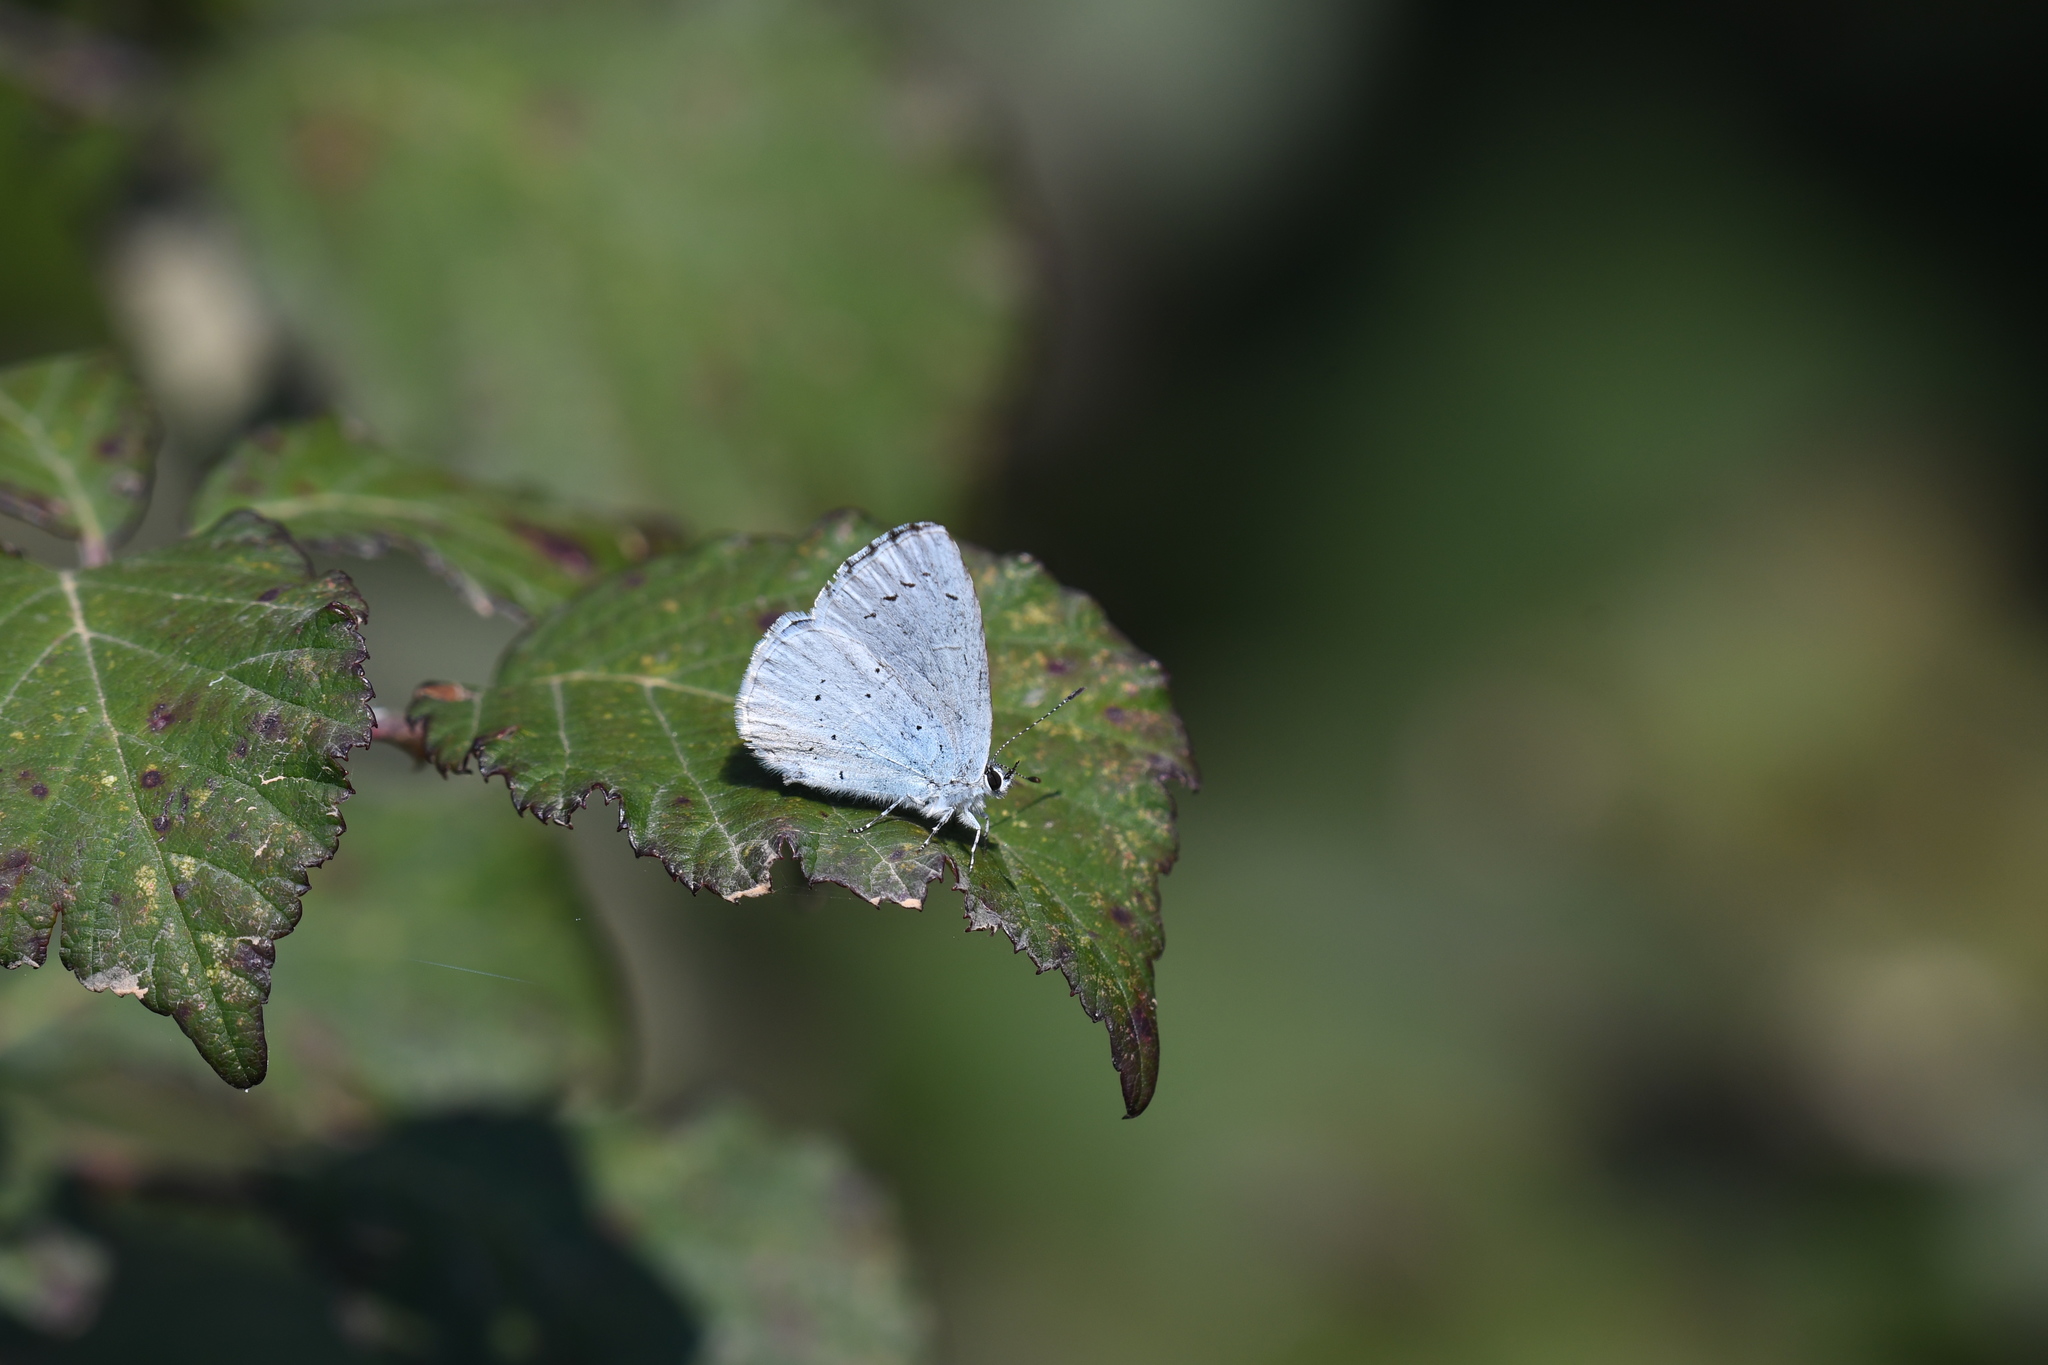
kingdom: Animalia
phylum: Arthropoda
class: Insecta
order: Lepidoptera
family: Lycaenidae
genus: Celastrina
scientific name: Celastrina argiolus
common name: Holly blue
